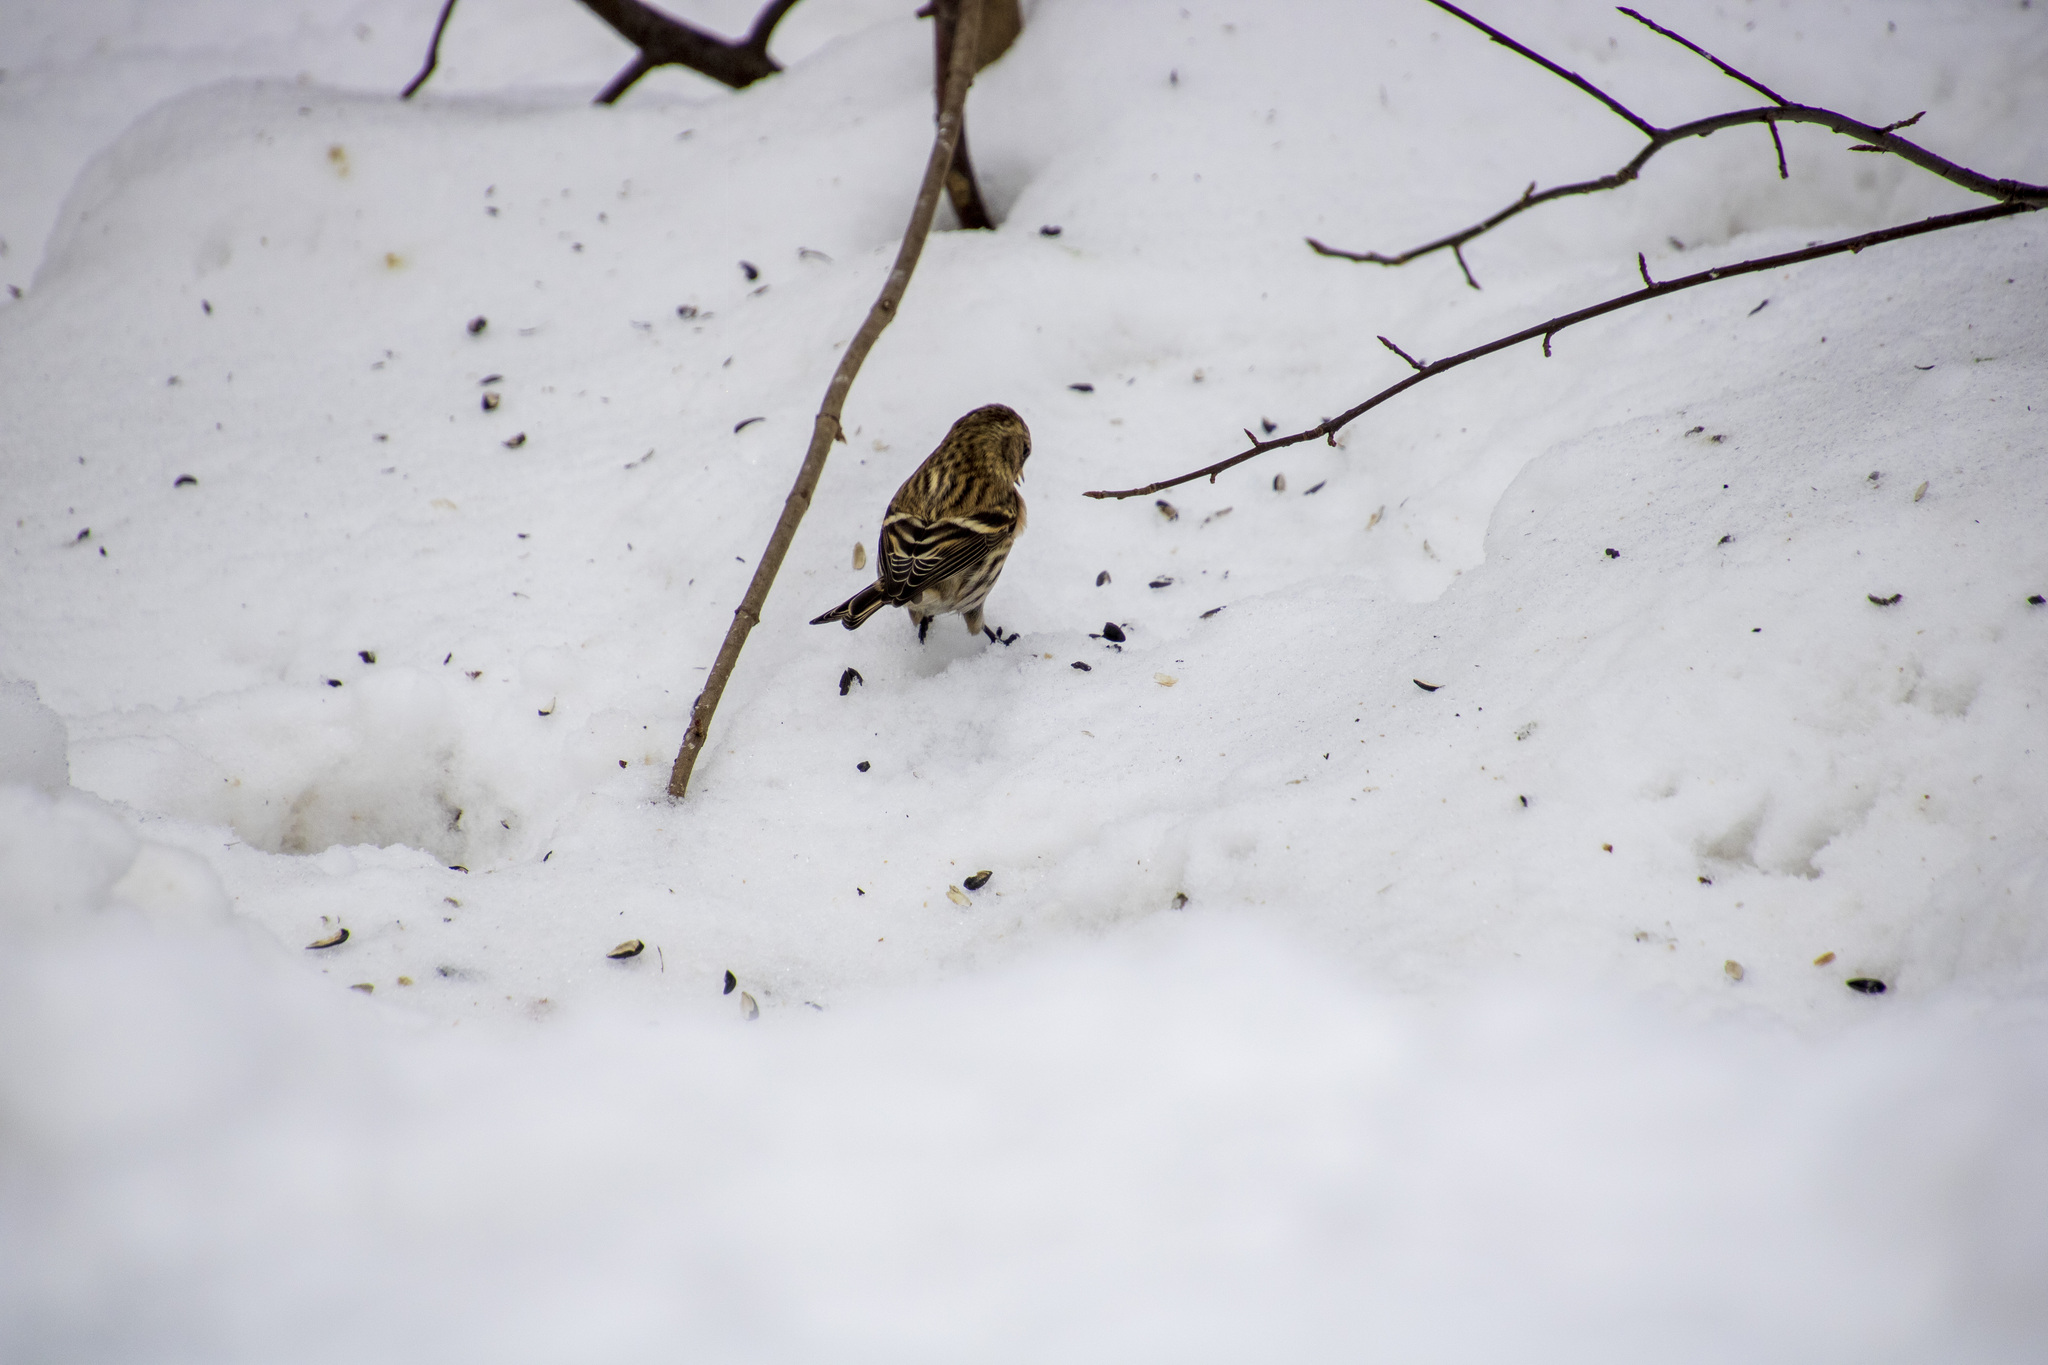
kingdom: Animalia
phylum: Chordata
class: Aves
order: Passeriformes
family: Fringillidae
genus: Acanthis
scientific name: Acanthis flammea
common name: Common redpoll
